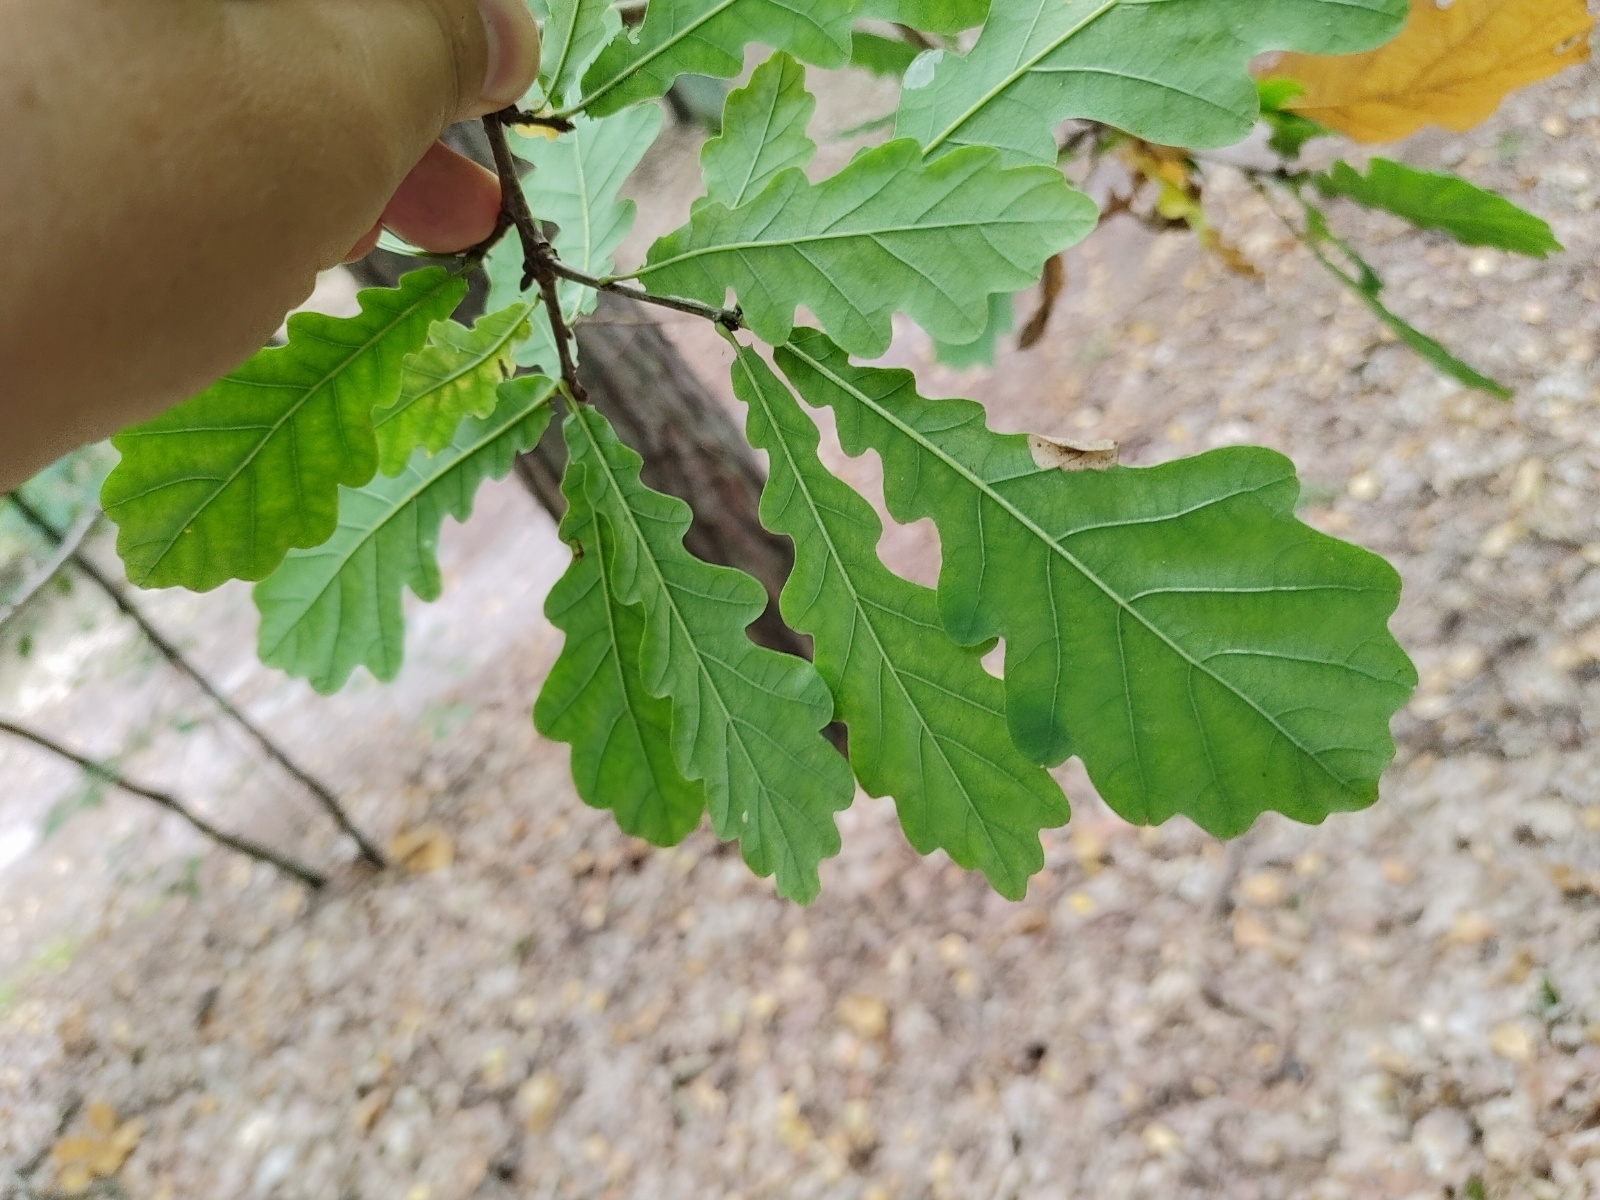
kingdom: Plantae
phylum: Tracheophyta
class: Magnoliopsida
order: Fagales
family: Fagaceae
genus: Quercus
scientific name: Quercus robur
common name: Pedunculate oak
